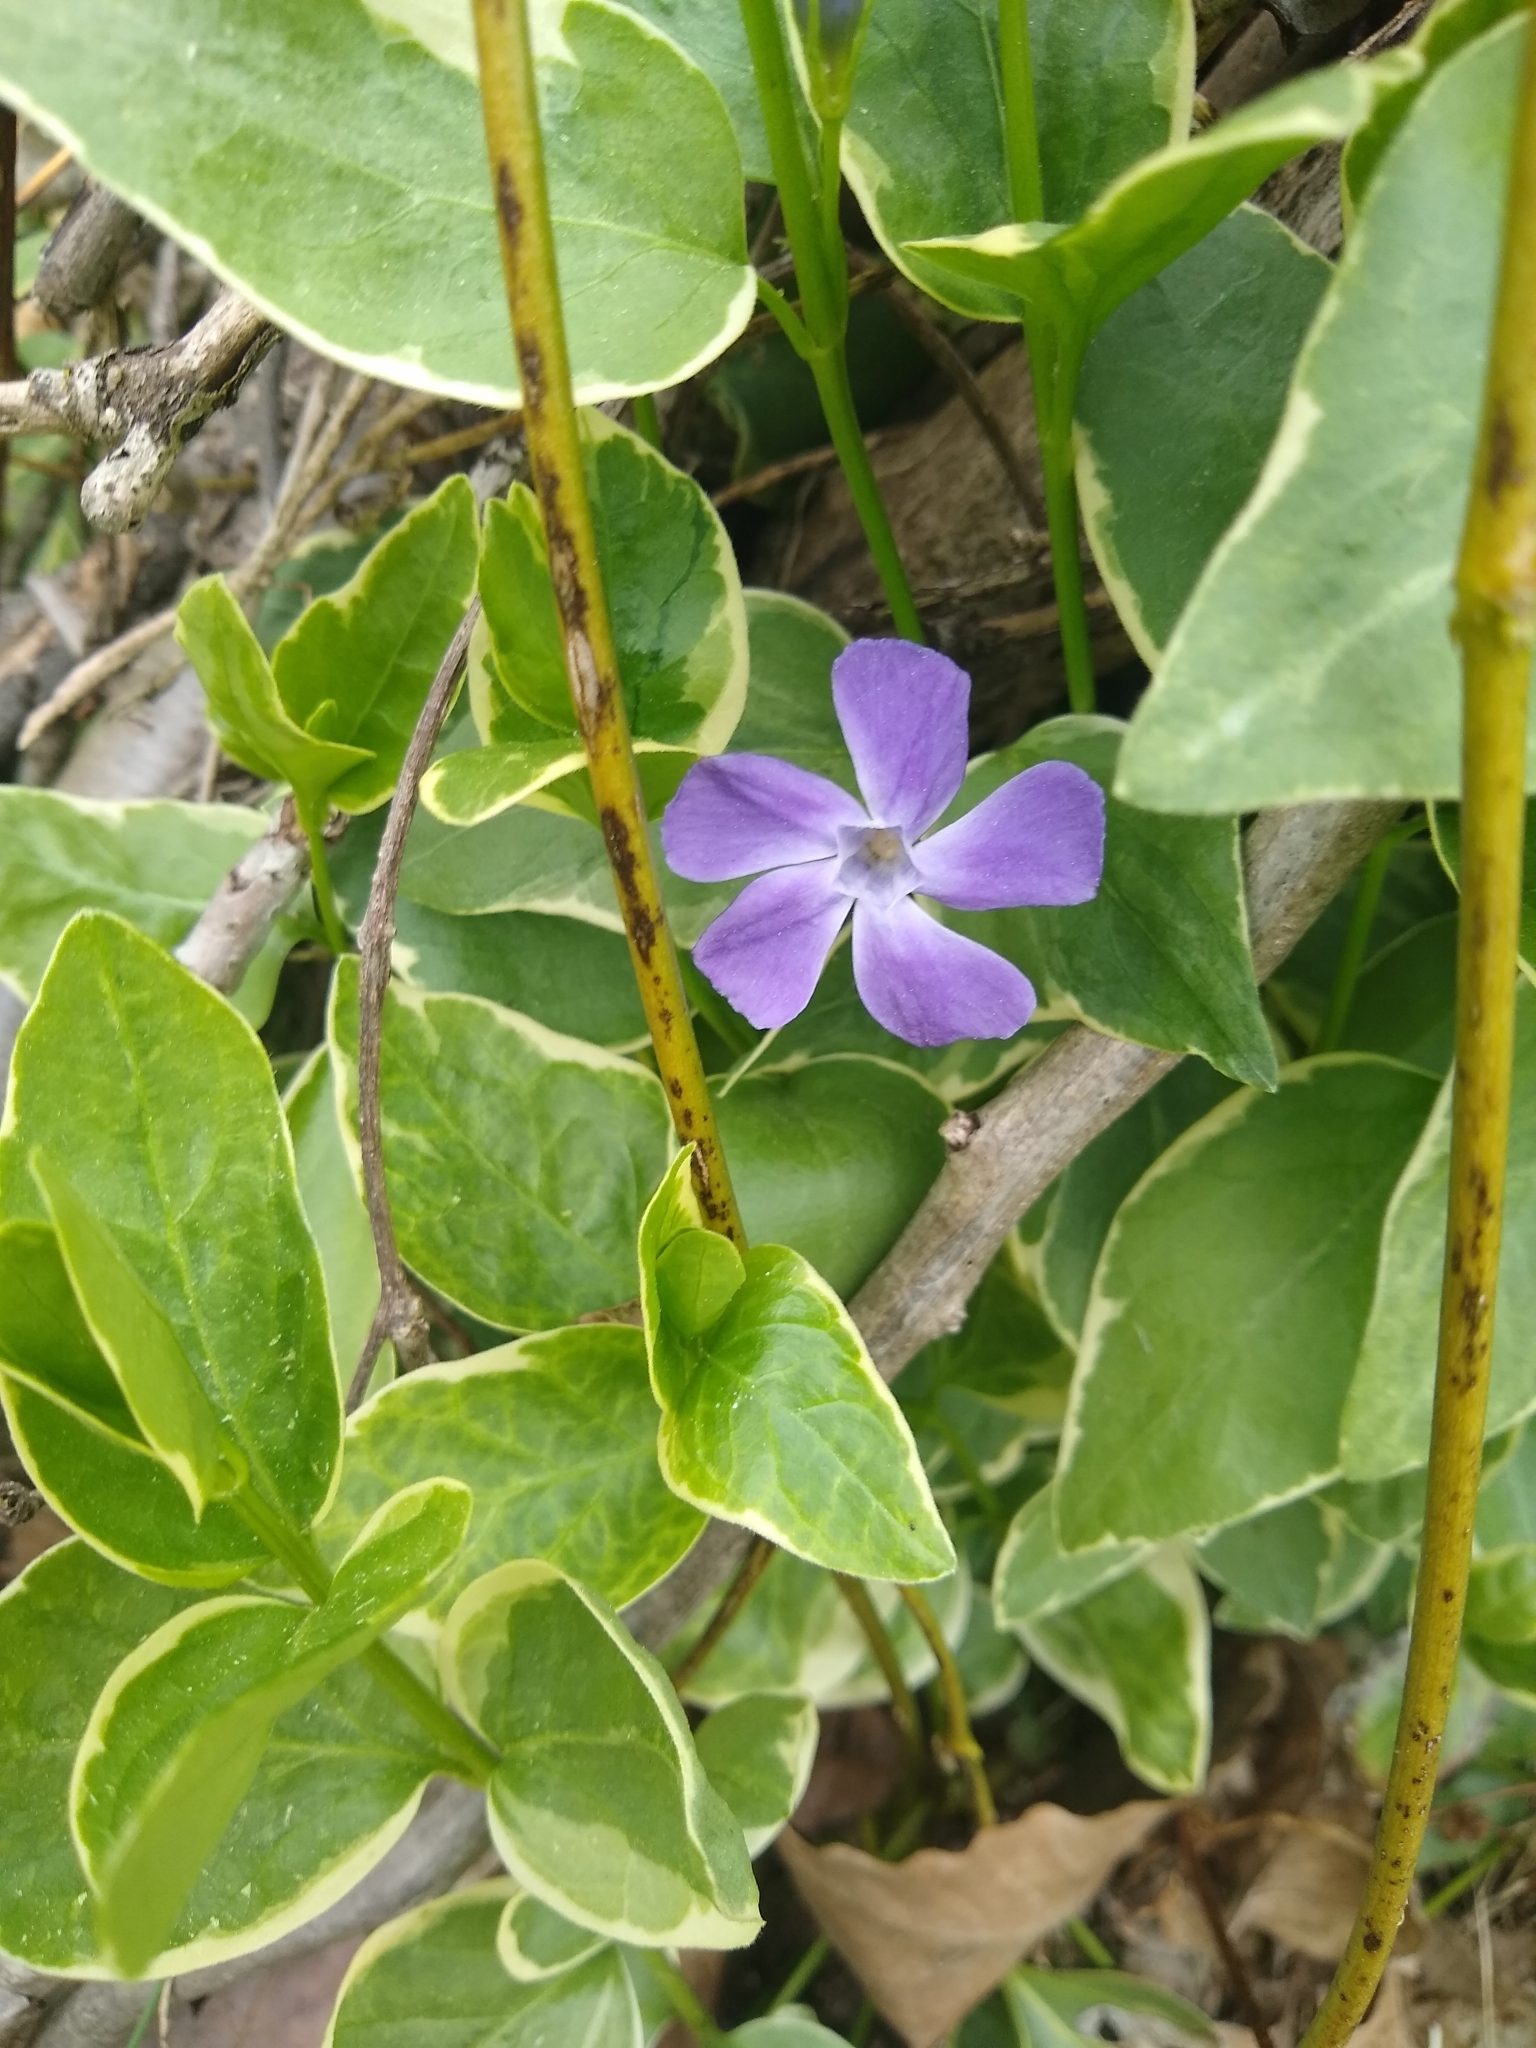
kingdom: Plantae
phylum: Tracheophyta
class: Magnoliopsida
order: Gentianales
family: Apocynaceae
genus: Vinca
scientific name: Vinca major
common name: Greater periwinkle
